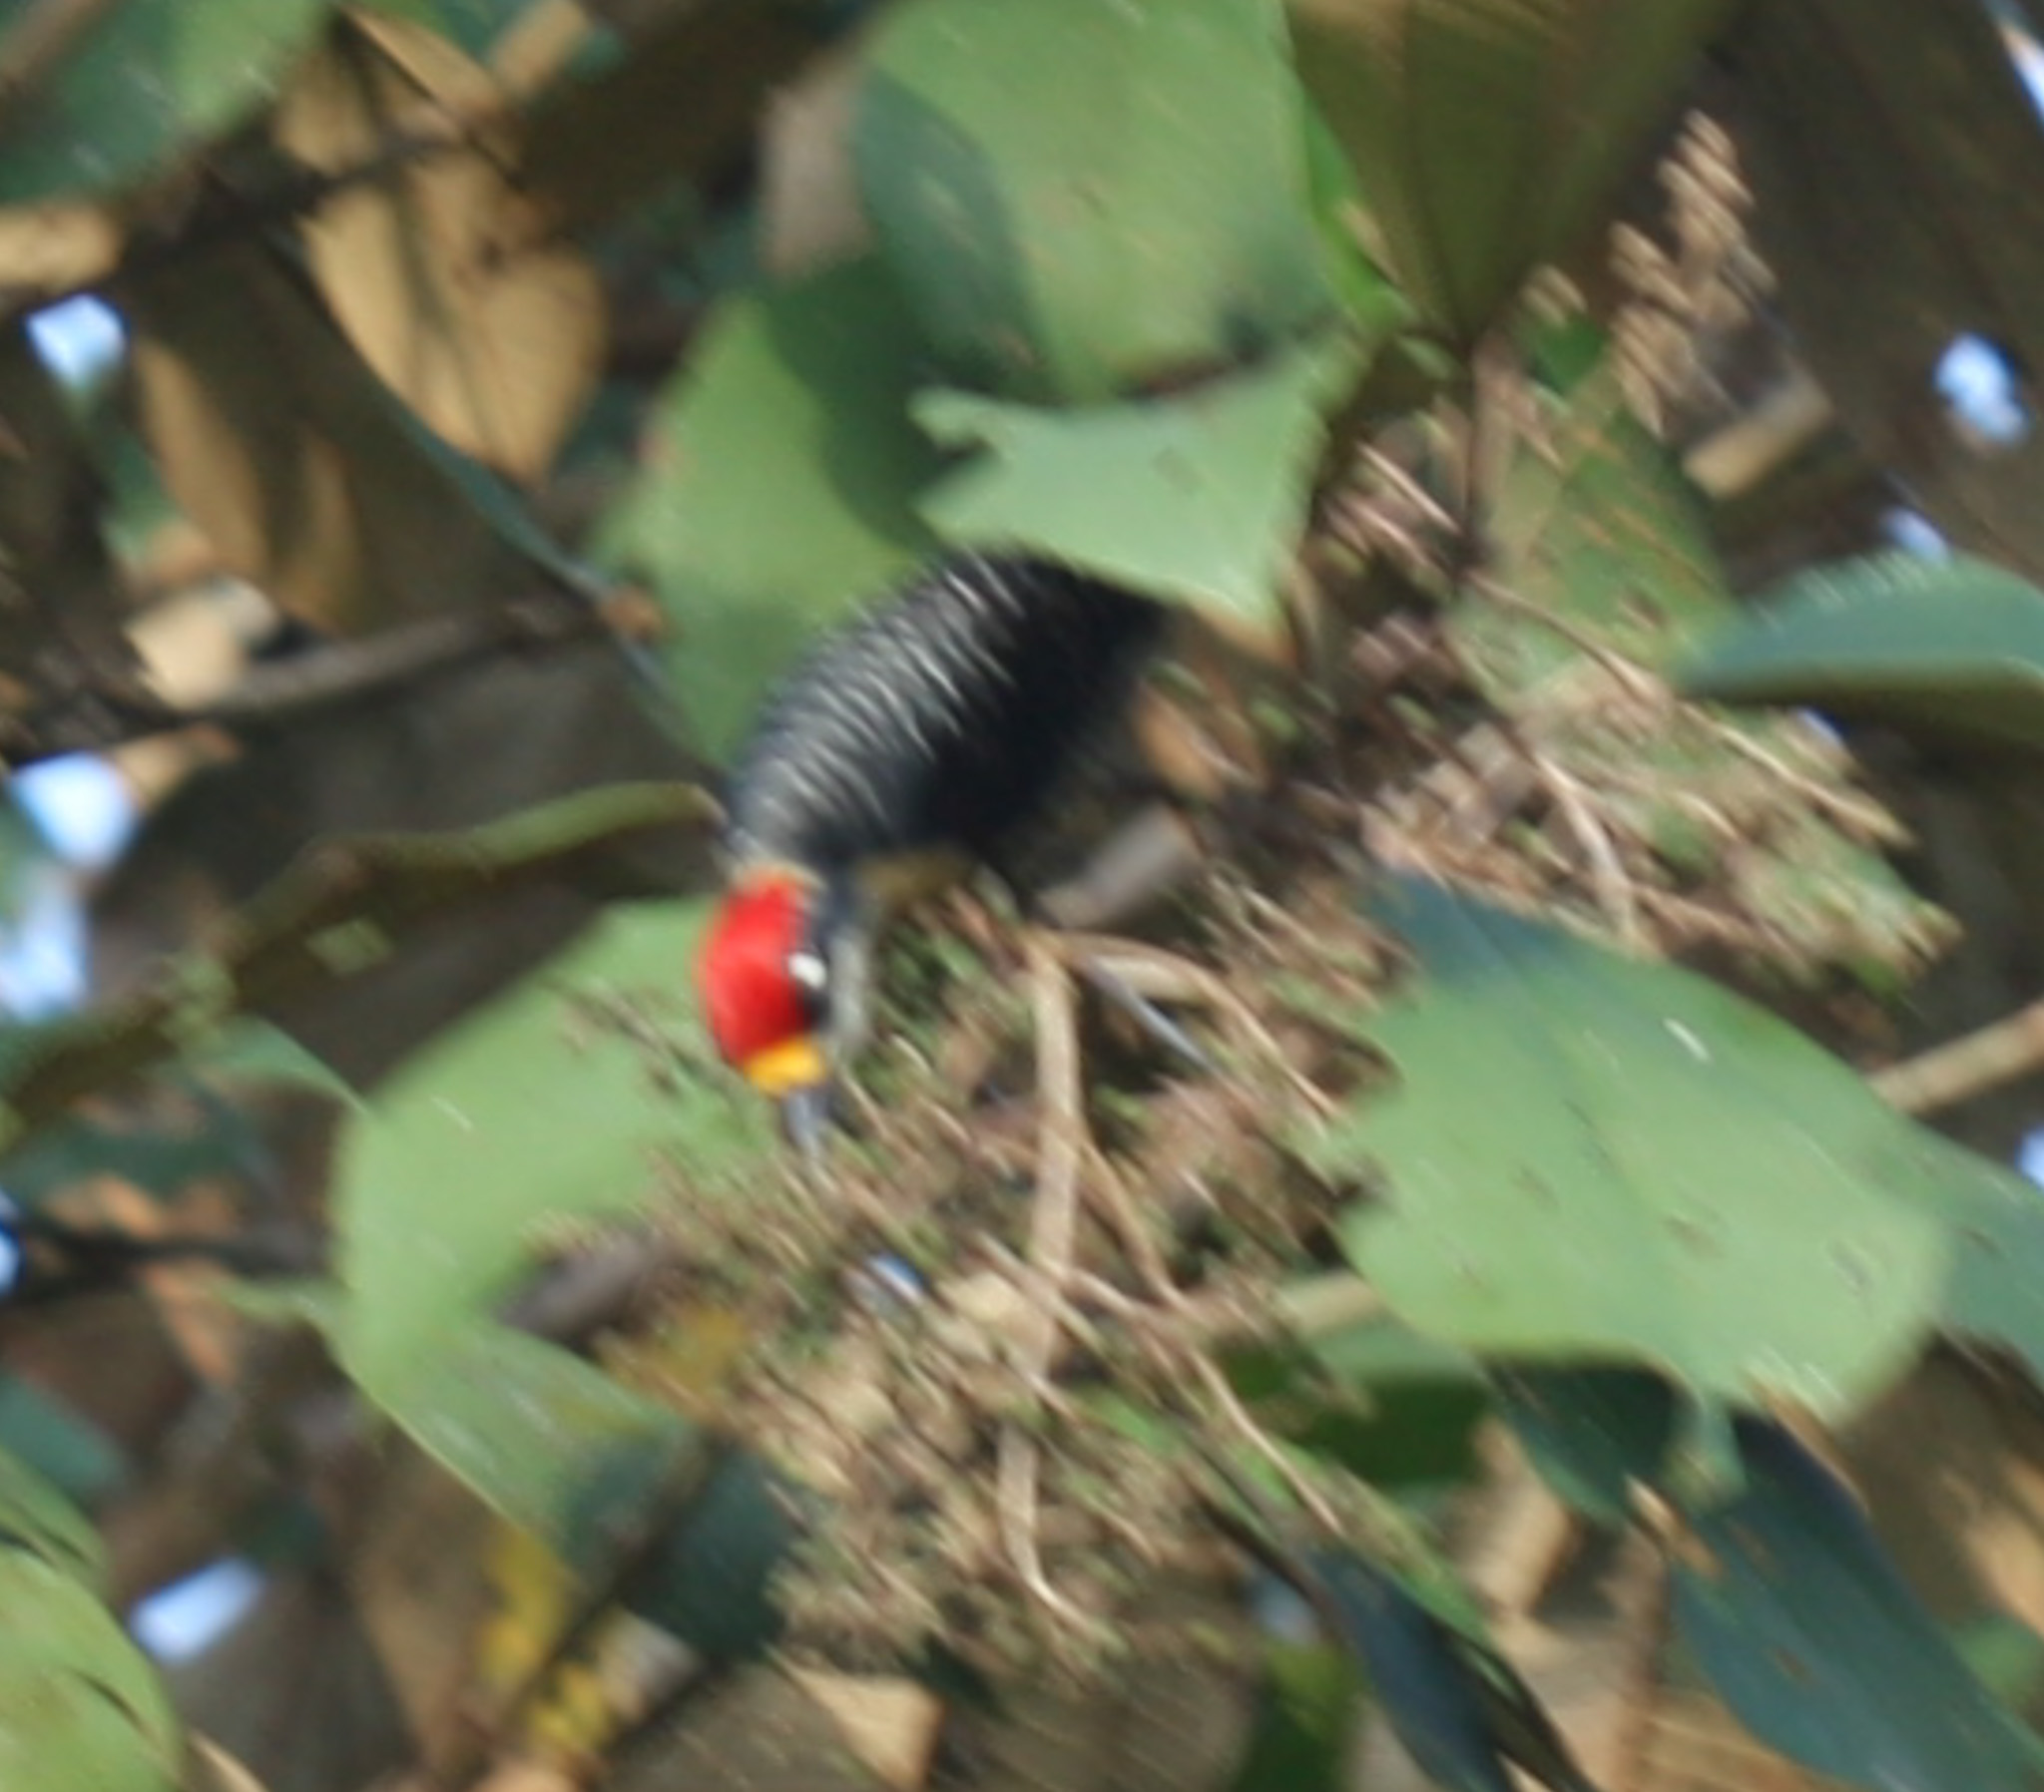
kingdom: Animalia
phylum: Chordata
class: Aves
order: Piciformes
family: Picidae
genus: Melanerpes
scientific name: Melanerpes pucherani
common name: Black-cheeked woodpecker
